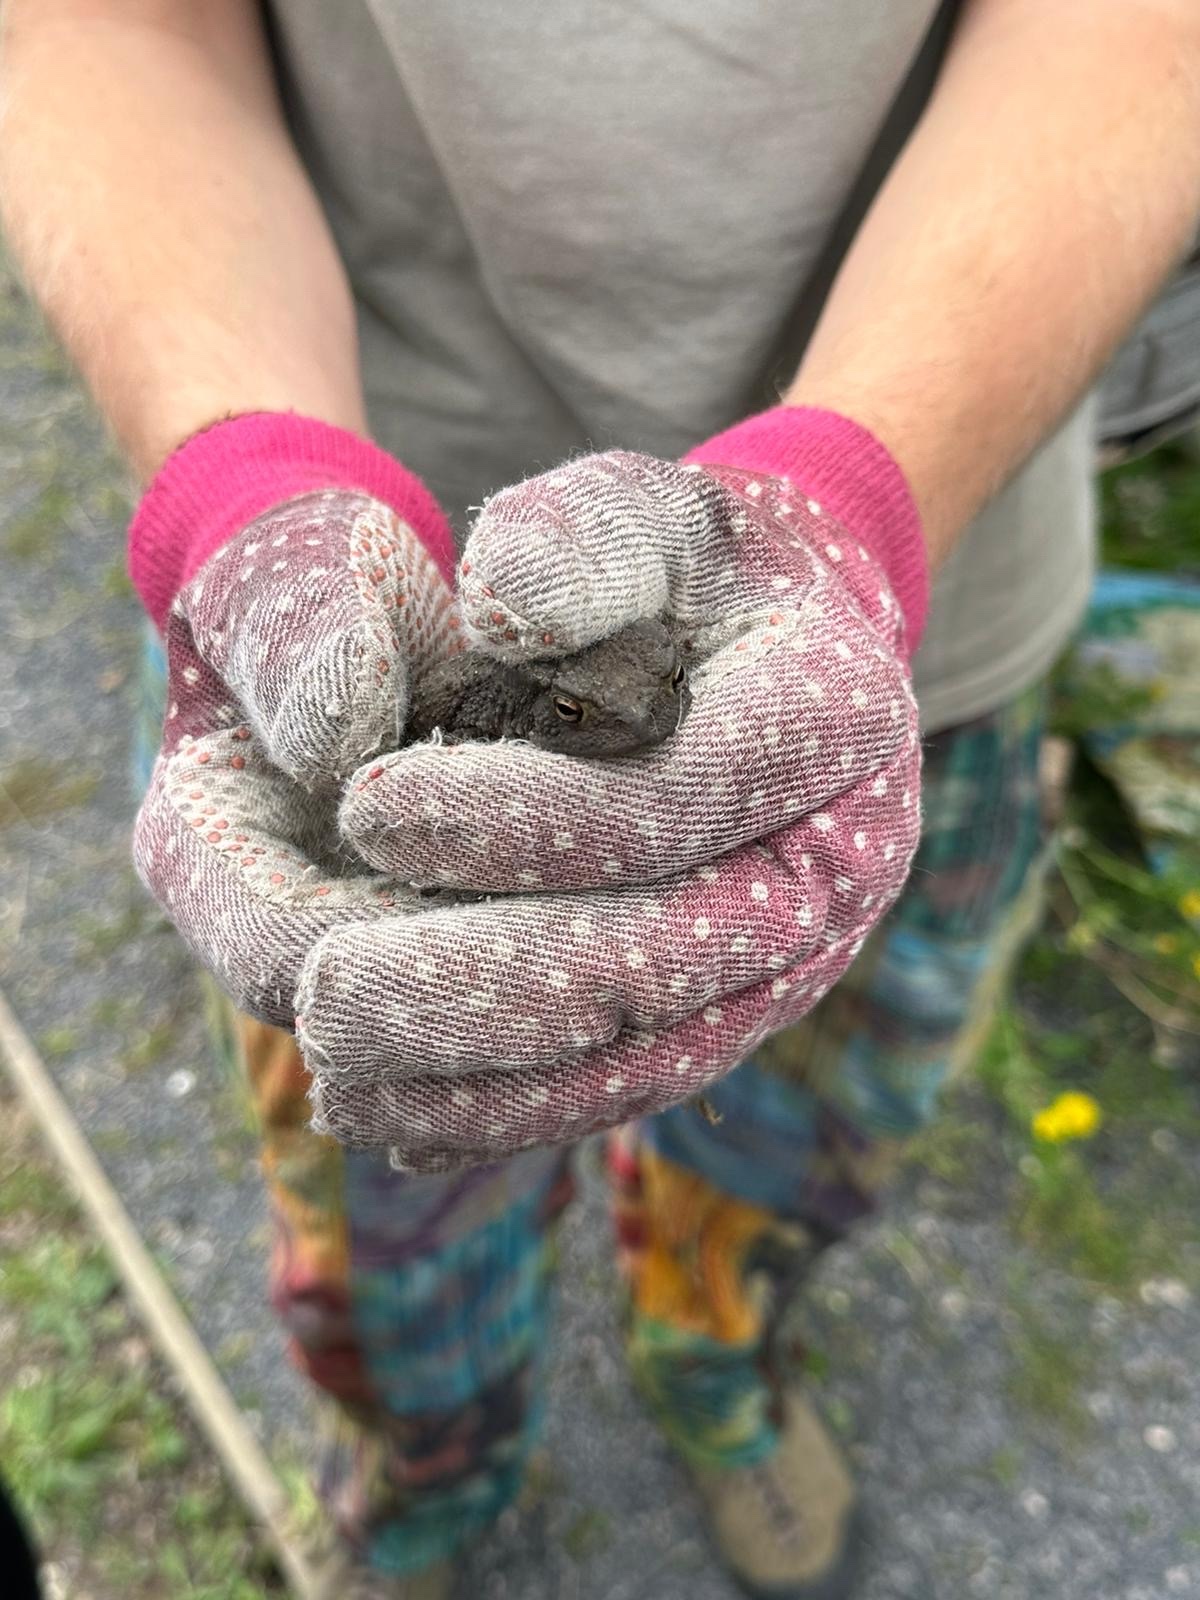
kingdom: Animalia
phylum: Chordata
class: Amphibia
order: Anura
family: Bufonidae
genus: Bufo
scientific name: Bufo bufo
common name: Common toad
